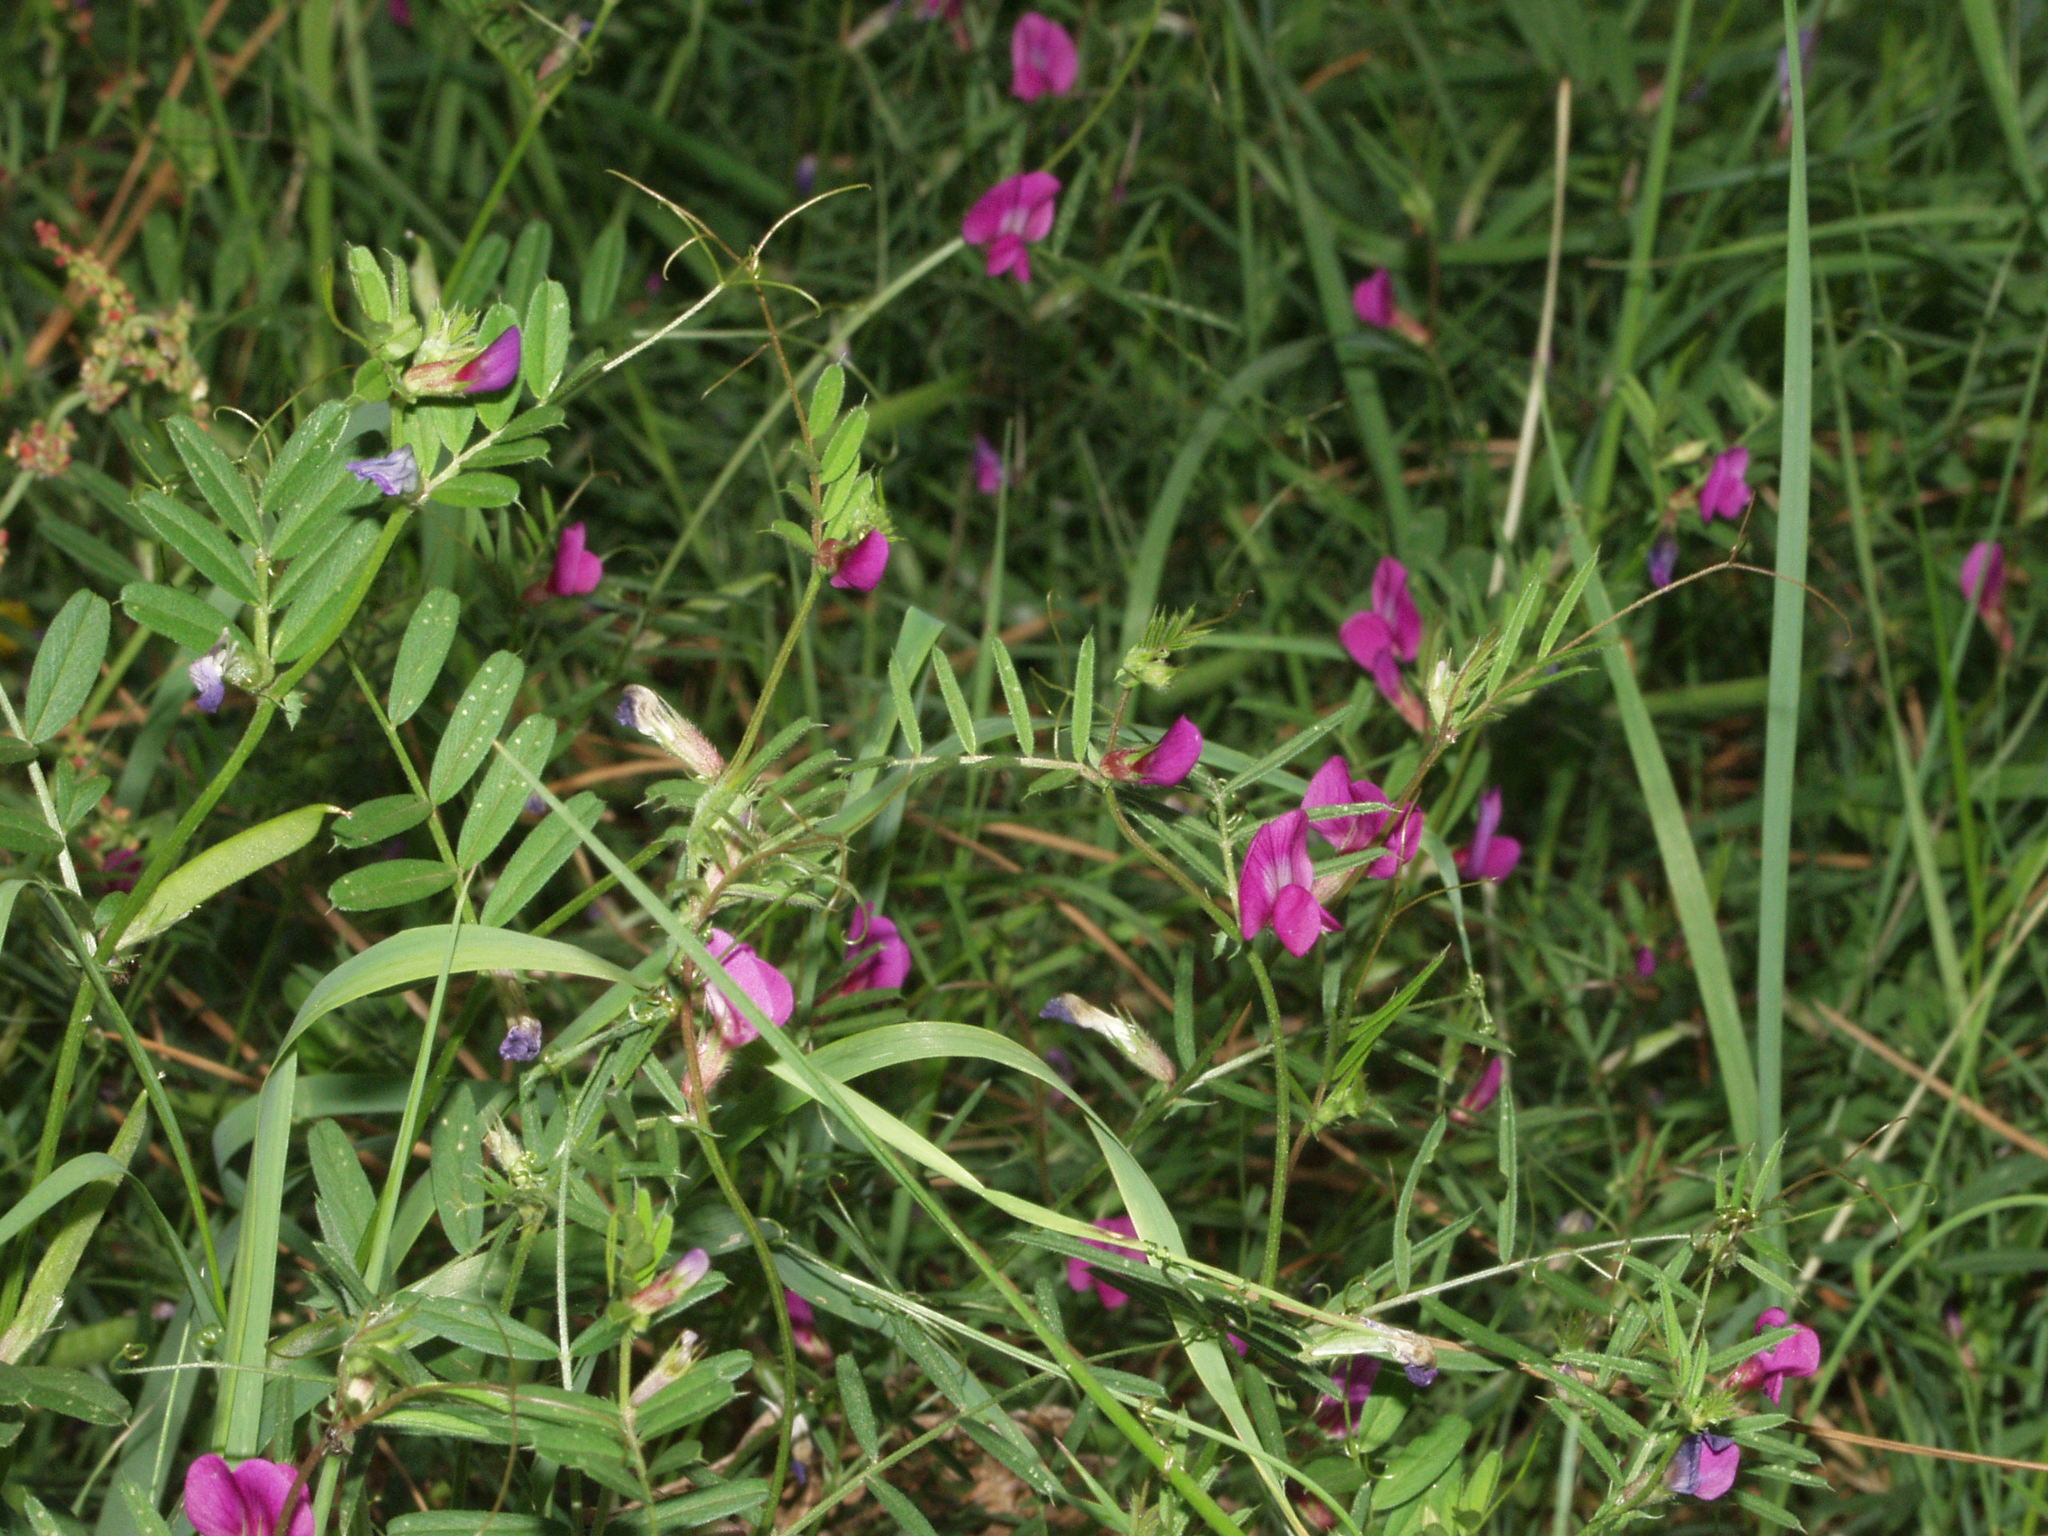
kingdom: Plantae
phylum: Tracheophyta
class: Magnoliopsida
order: Fabales
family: Fabaceae
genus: Lathyrus
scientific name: Lathyrus tingitanus
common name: Tangier pea
